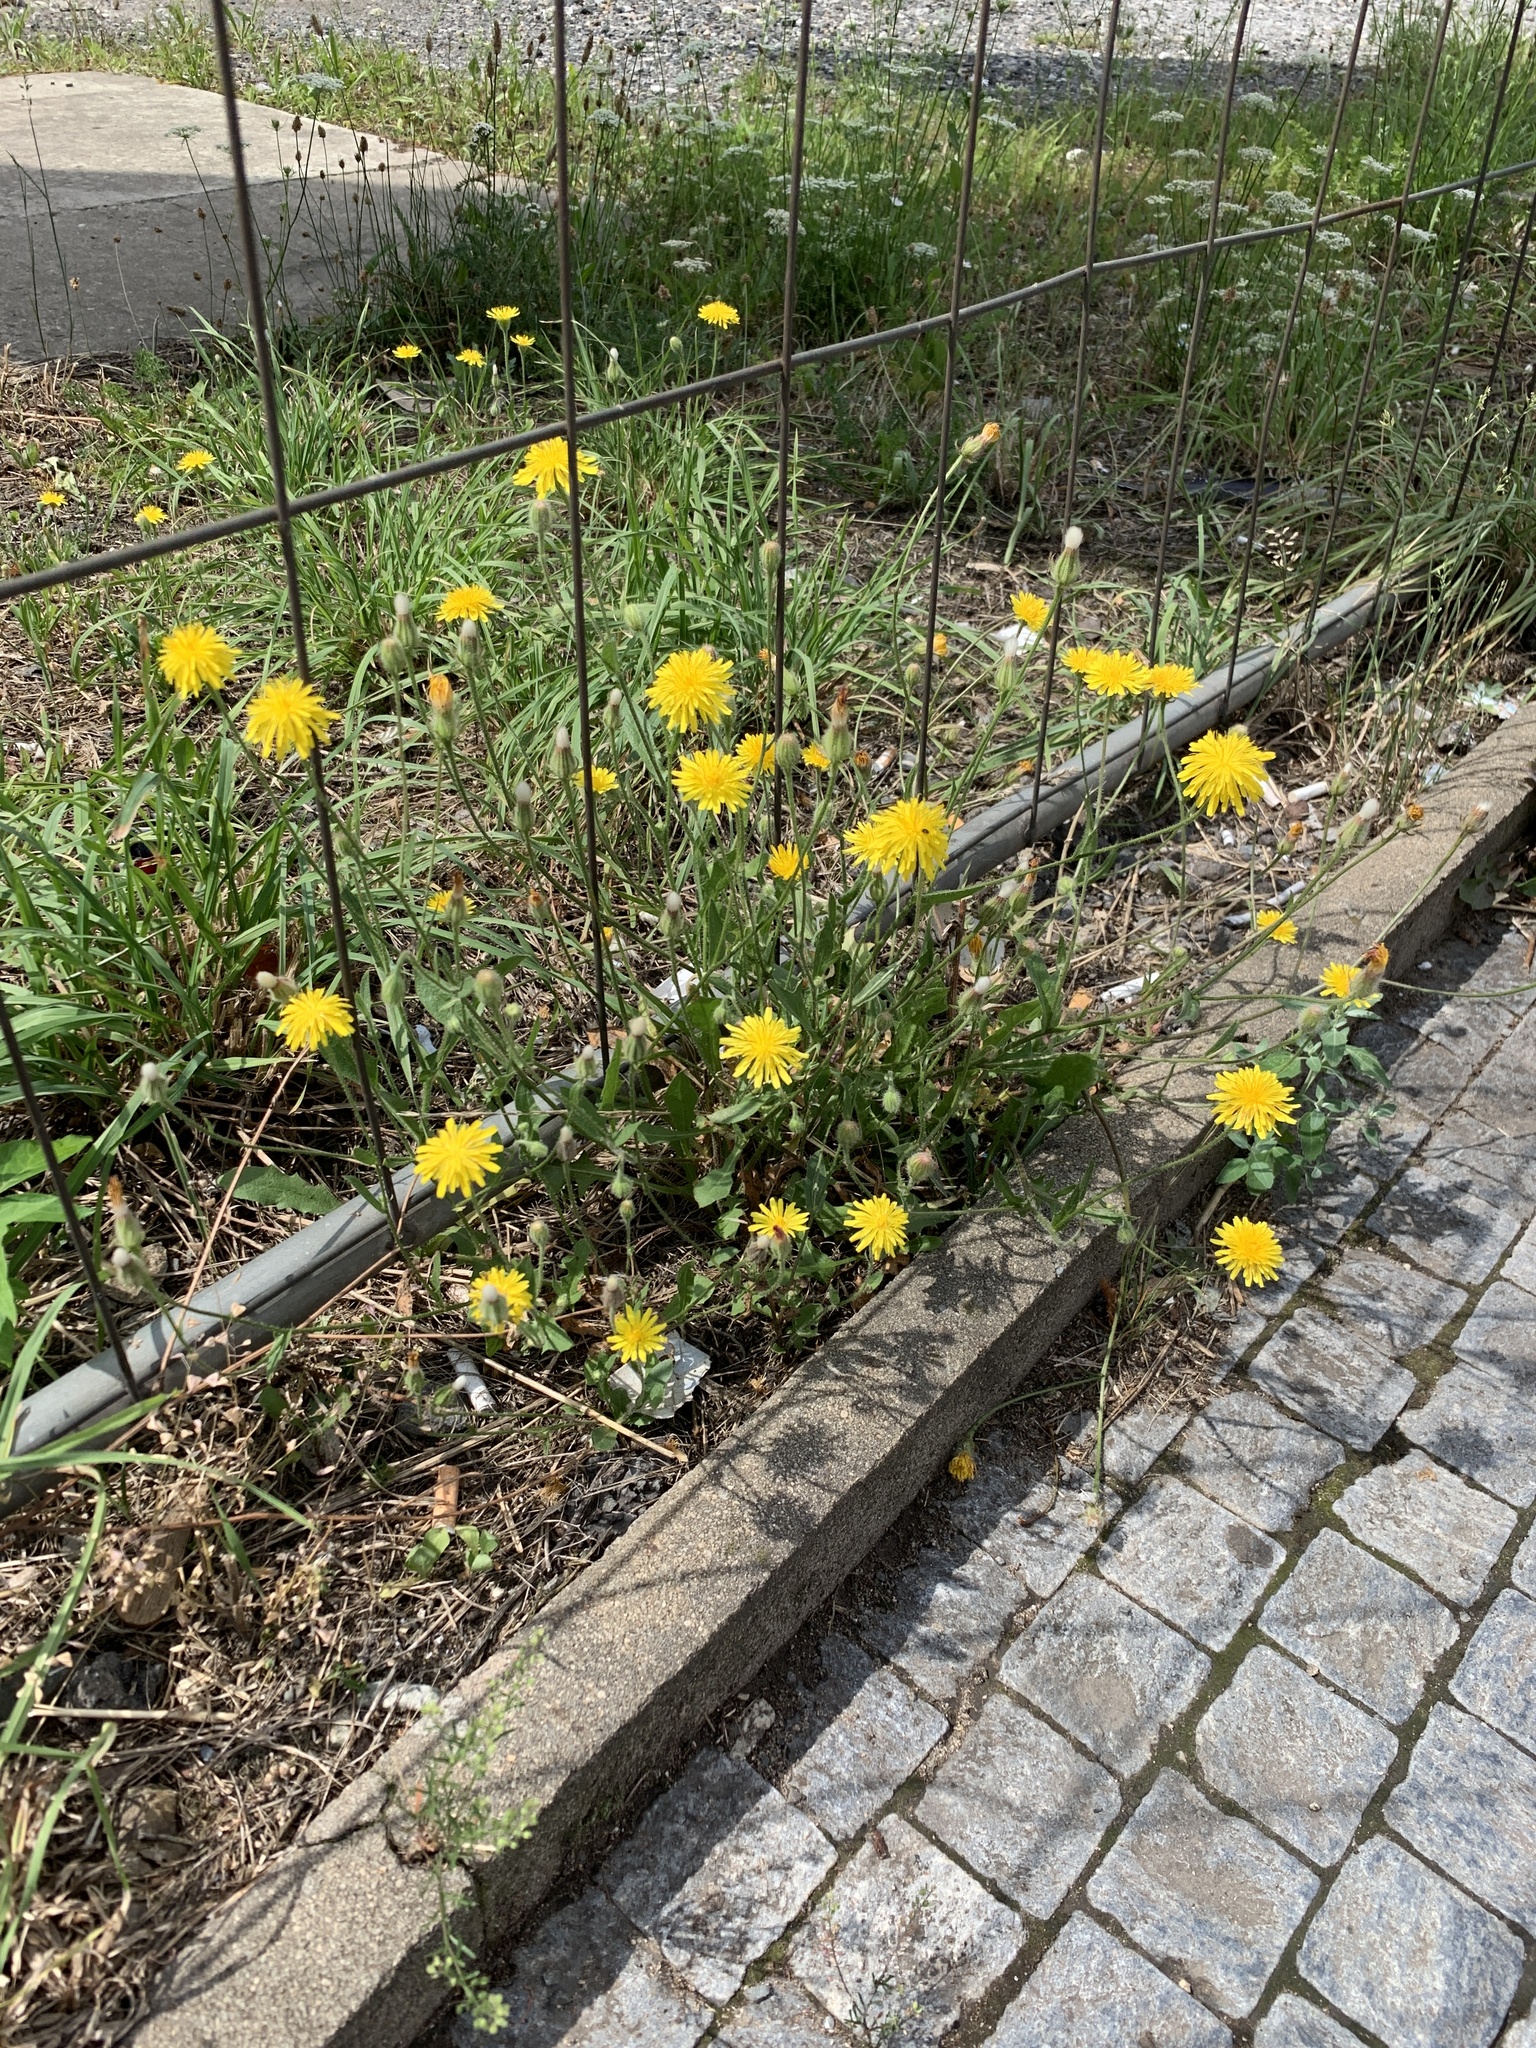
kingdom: Plantae
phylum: Tracheophyta
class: Magnoliopsida
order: Asterales
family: Asteraceae
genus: Crepis
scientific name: Crepis foetida
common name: Stinking hawk's-beard
